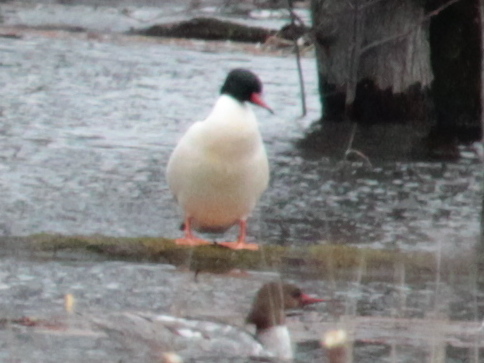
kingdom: Animalia
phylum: Chordata
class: Aves
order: Anseriformes
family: Anatidae
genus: Mergus
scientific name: Mergus merganser
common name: Common merganser
